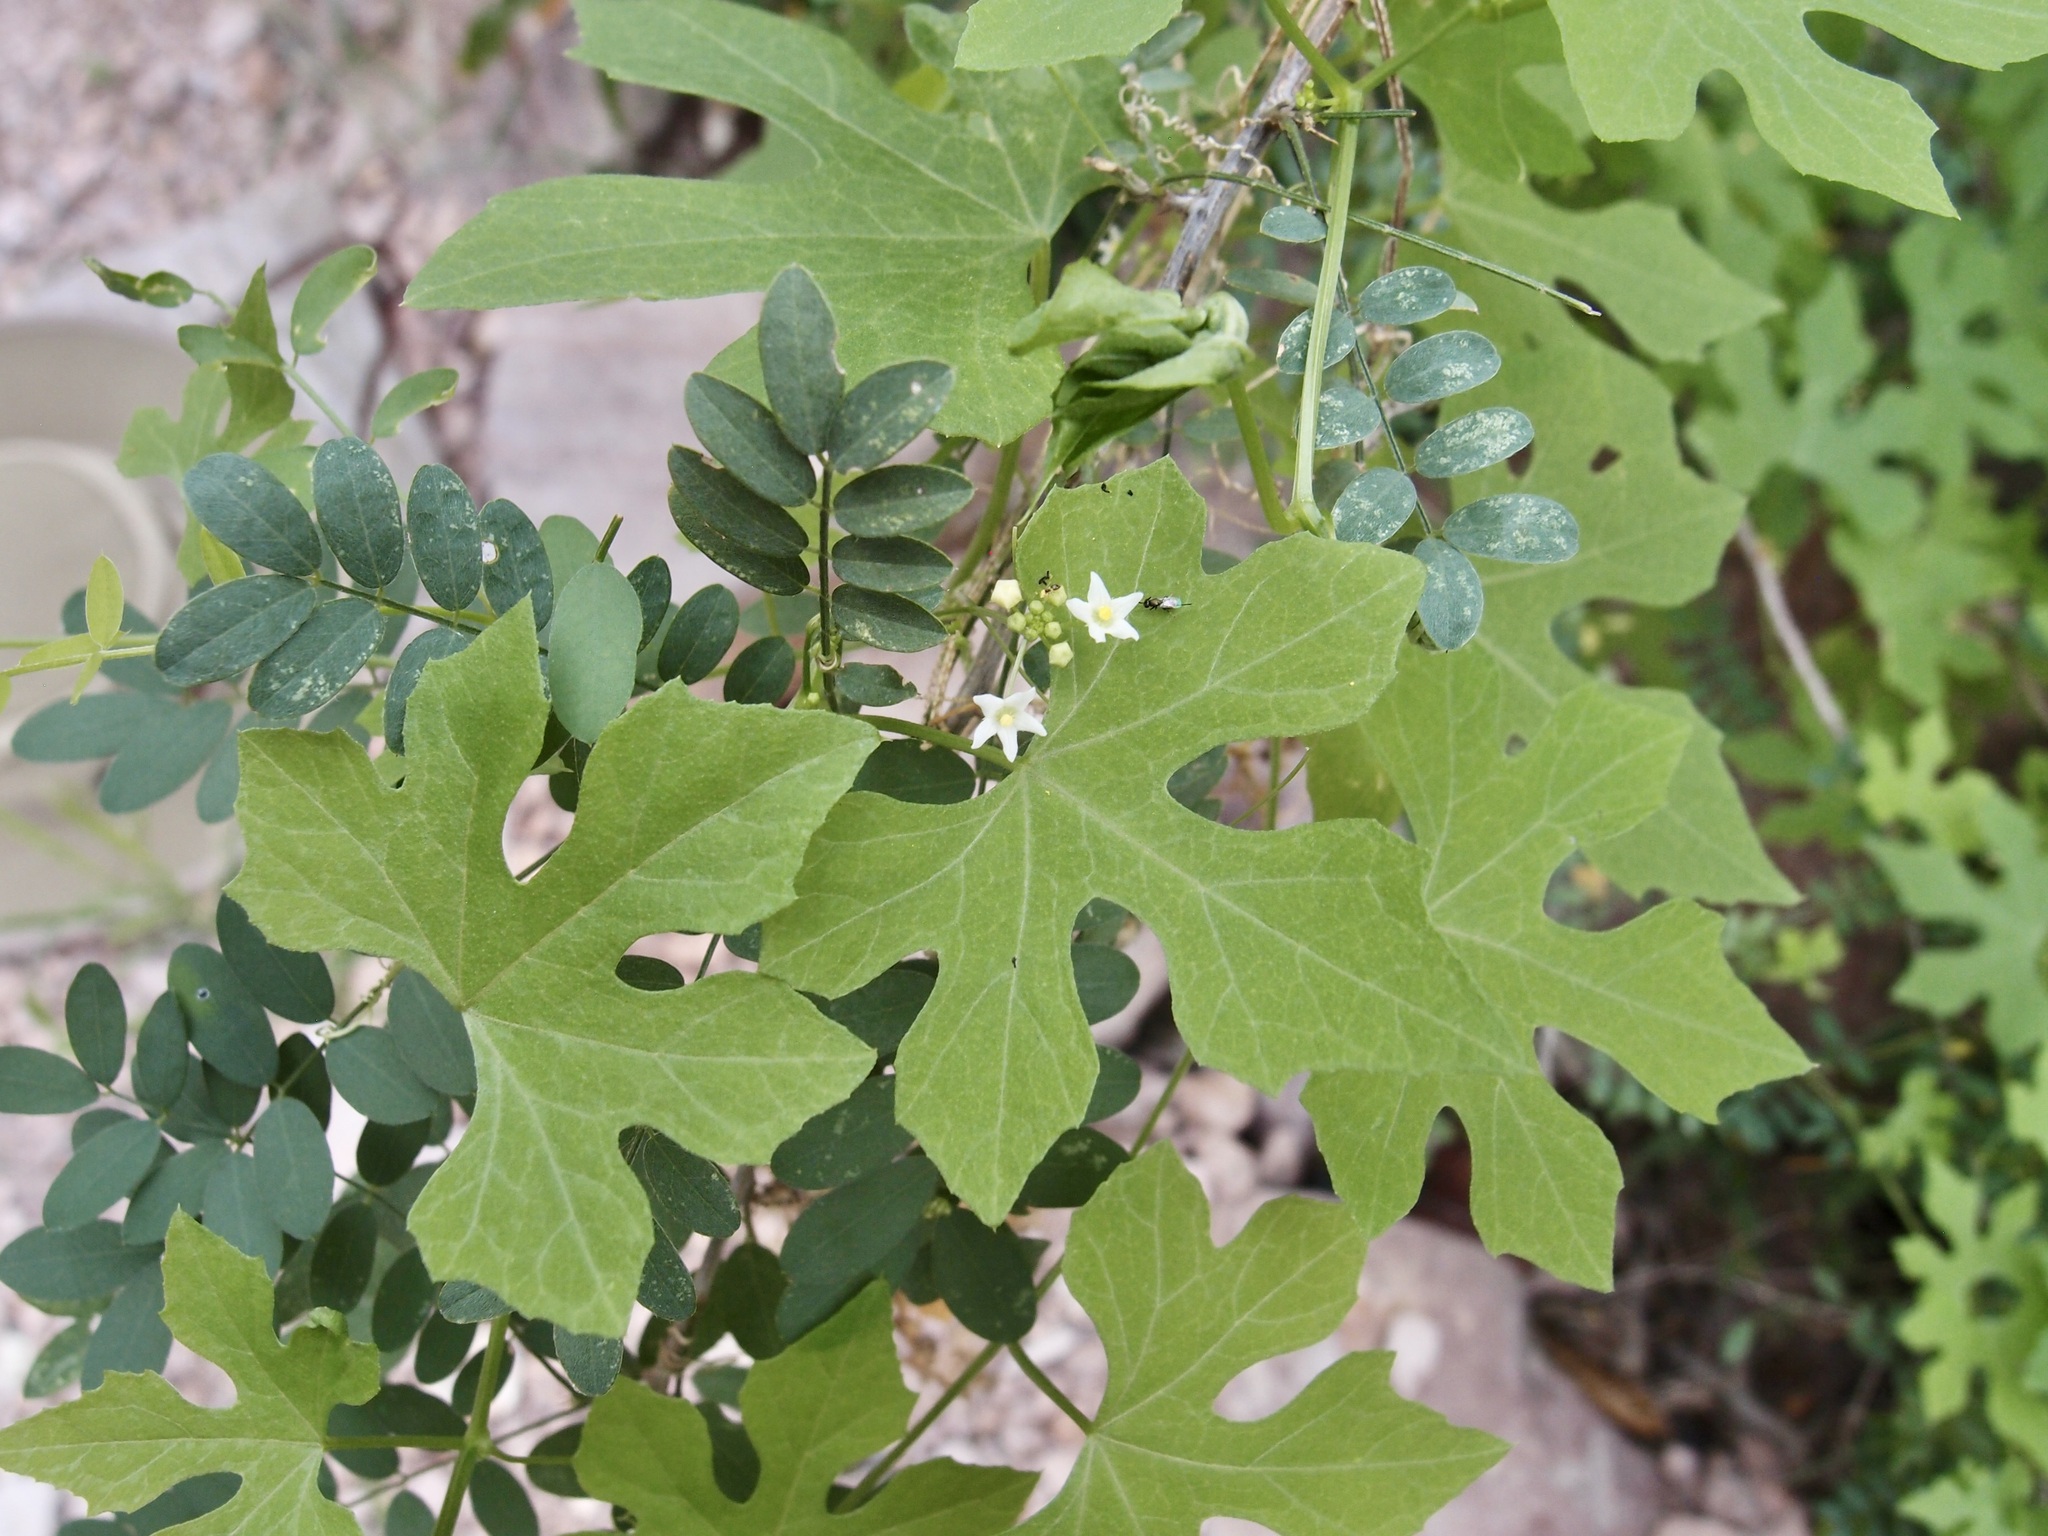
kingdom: Plantae
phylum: Tracheophyta
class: Magnoliopsida
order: Cucurbitales
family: Cucurbitaceae
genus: Echinopepon
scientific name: Echinopepon insularis
